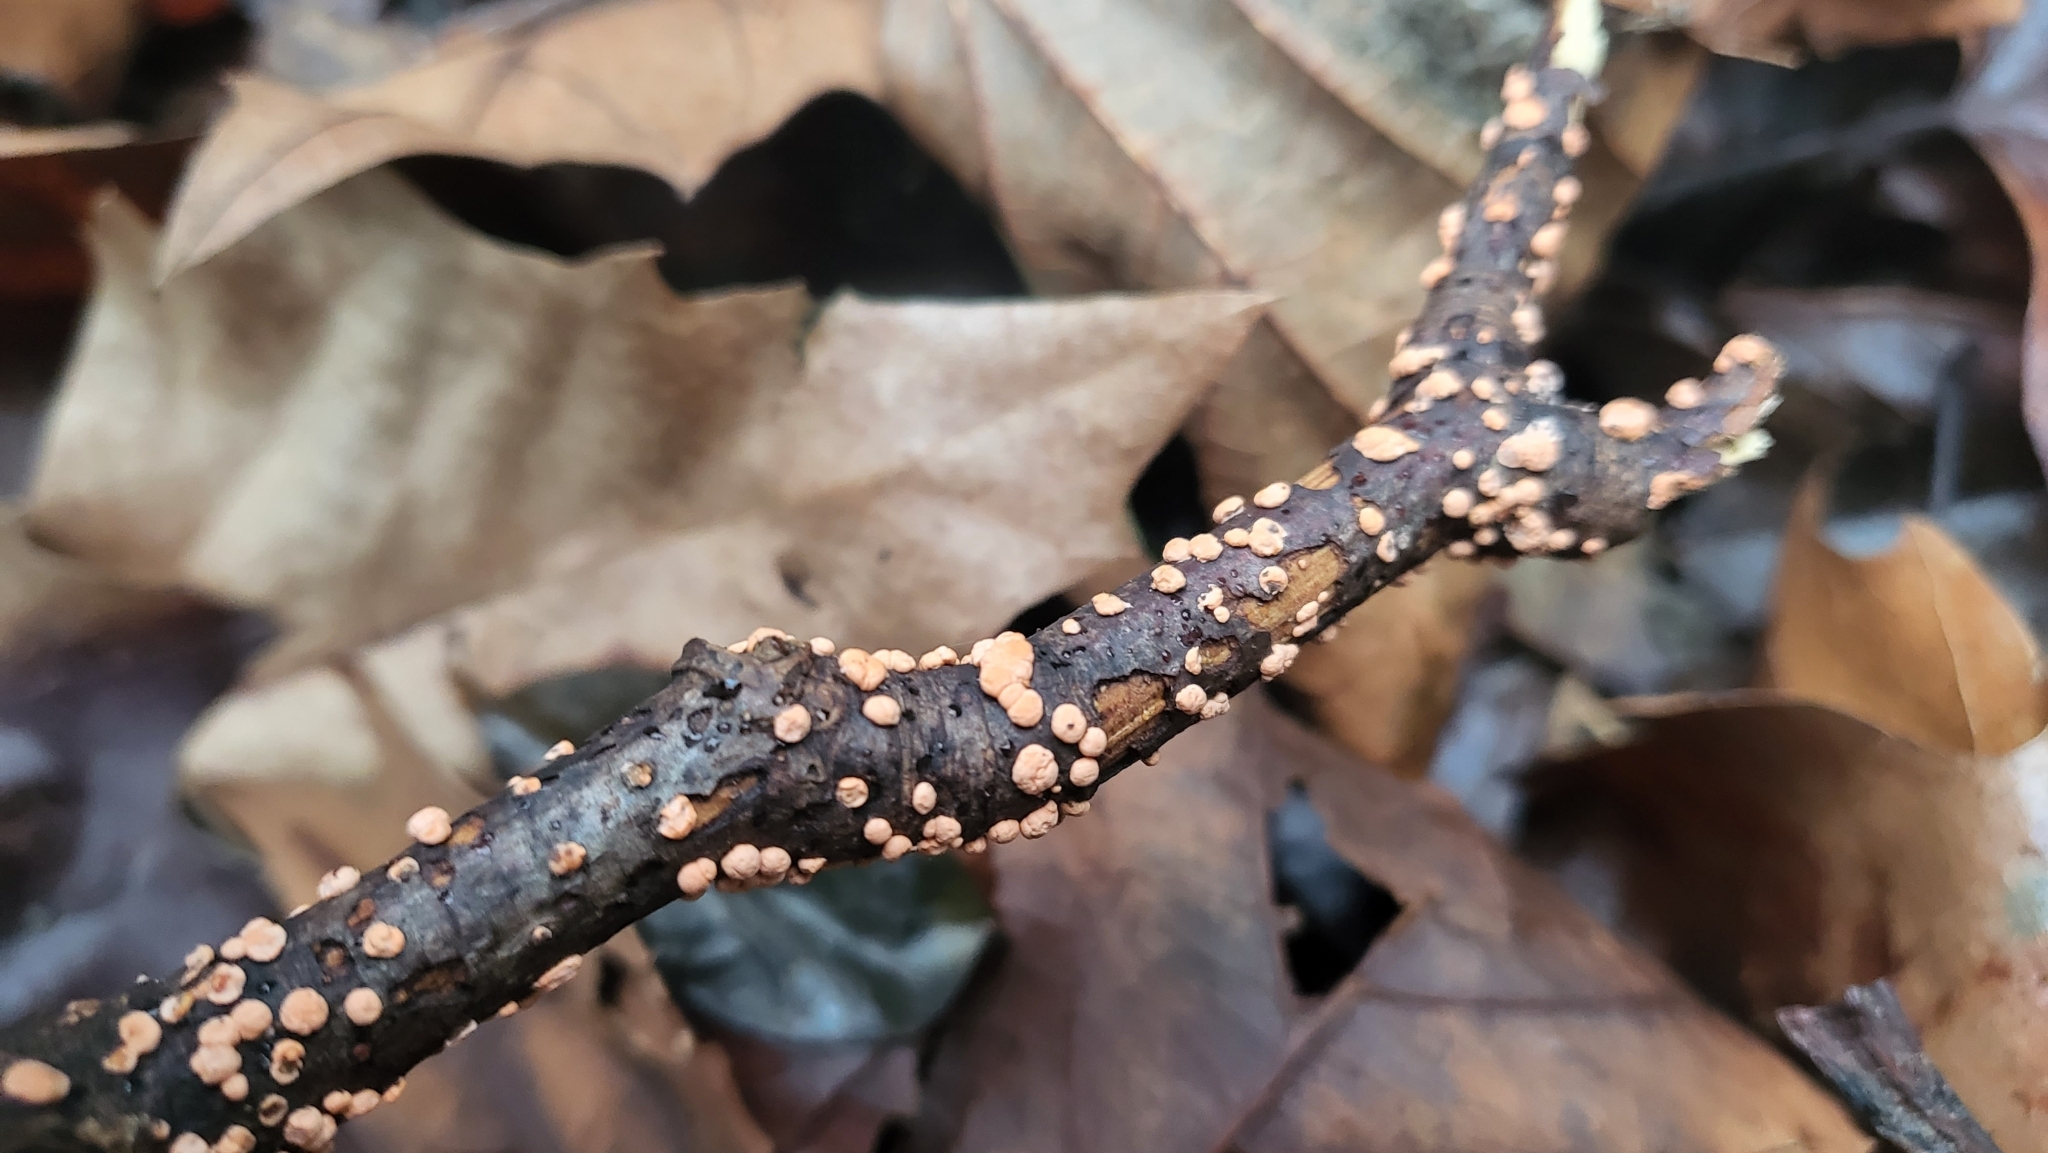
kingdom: Fungi
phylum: Ascomycota
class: Sordariomycetes
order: Hypocreales
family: Nectriaceae
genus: Nectria
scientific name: Nectria cinnabarina
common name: Coral spot
